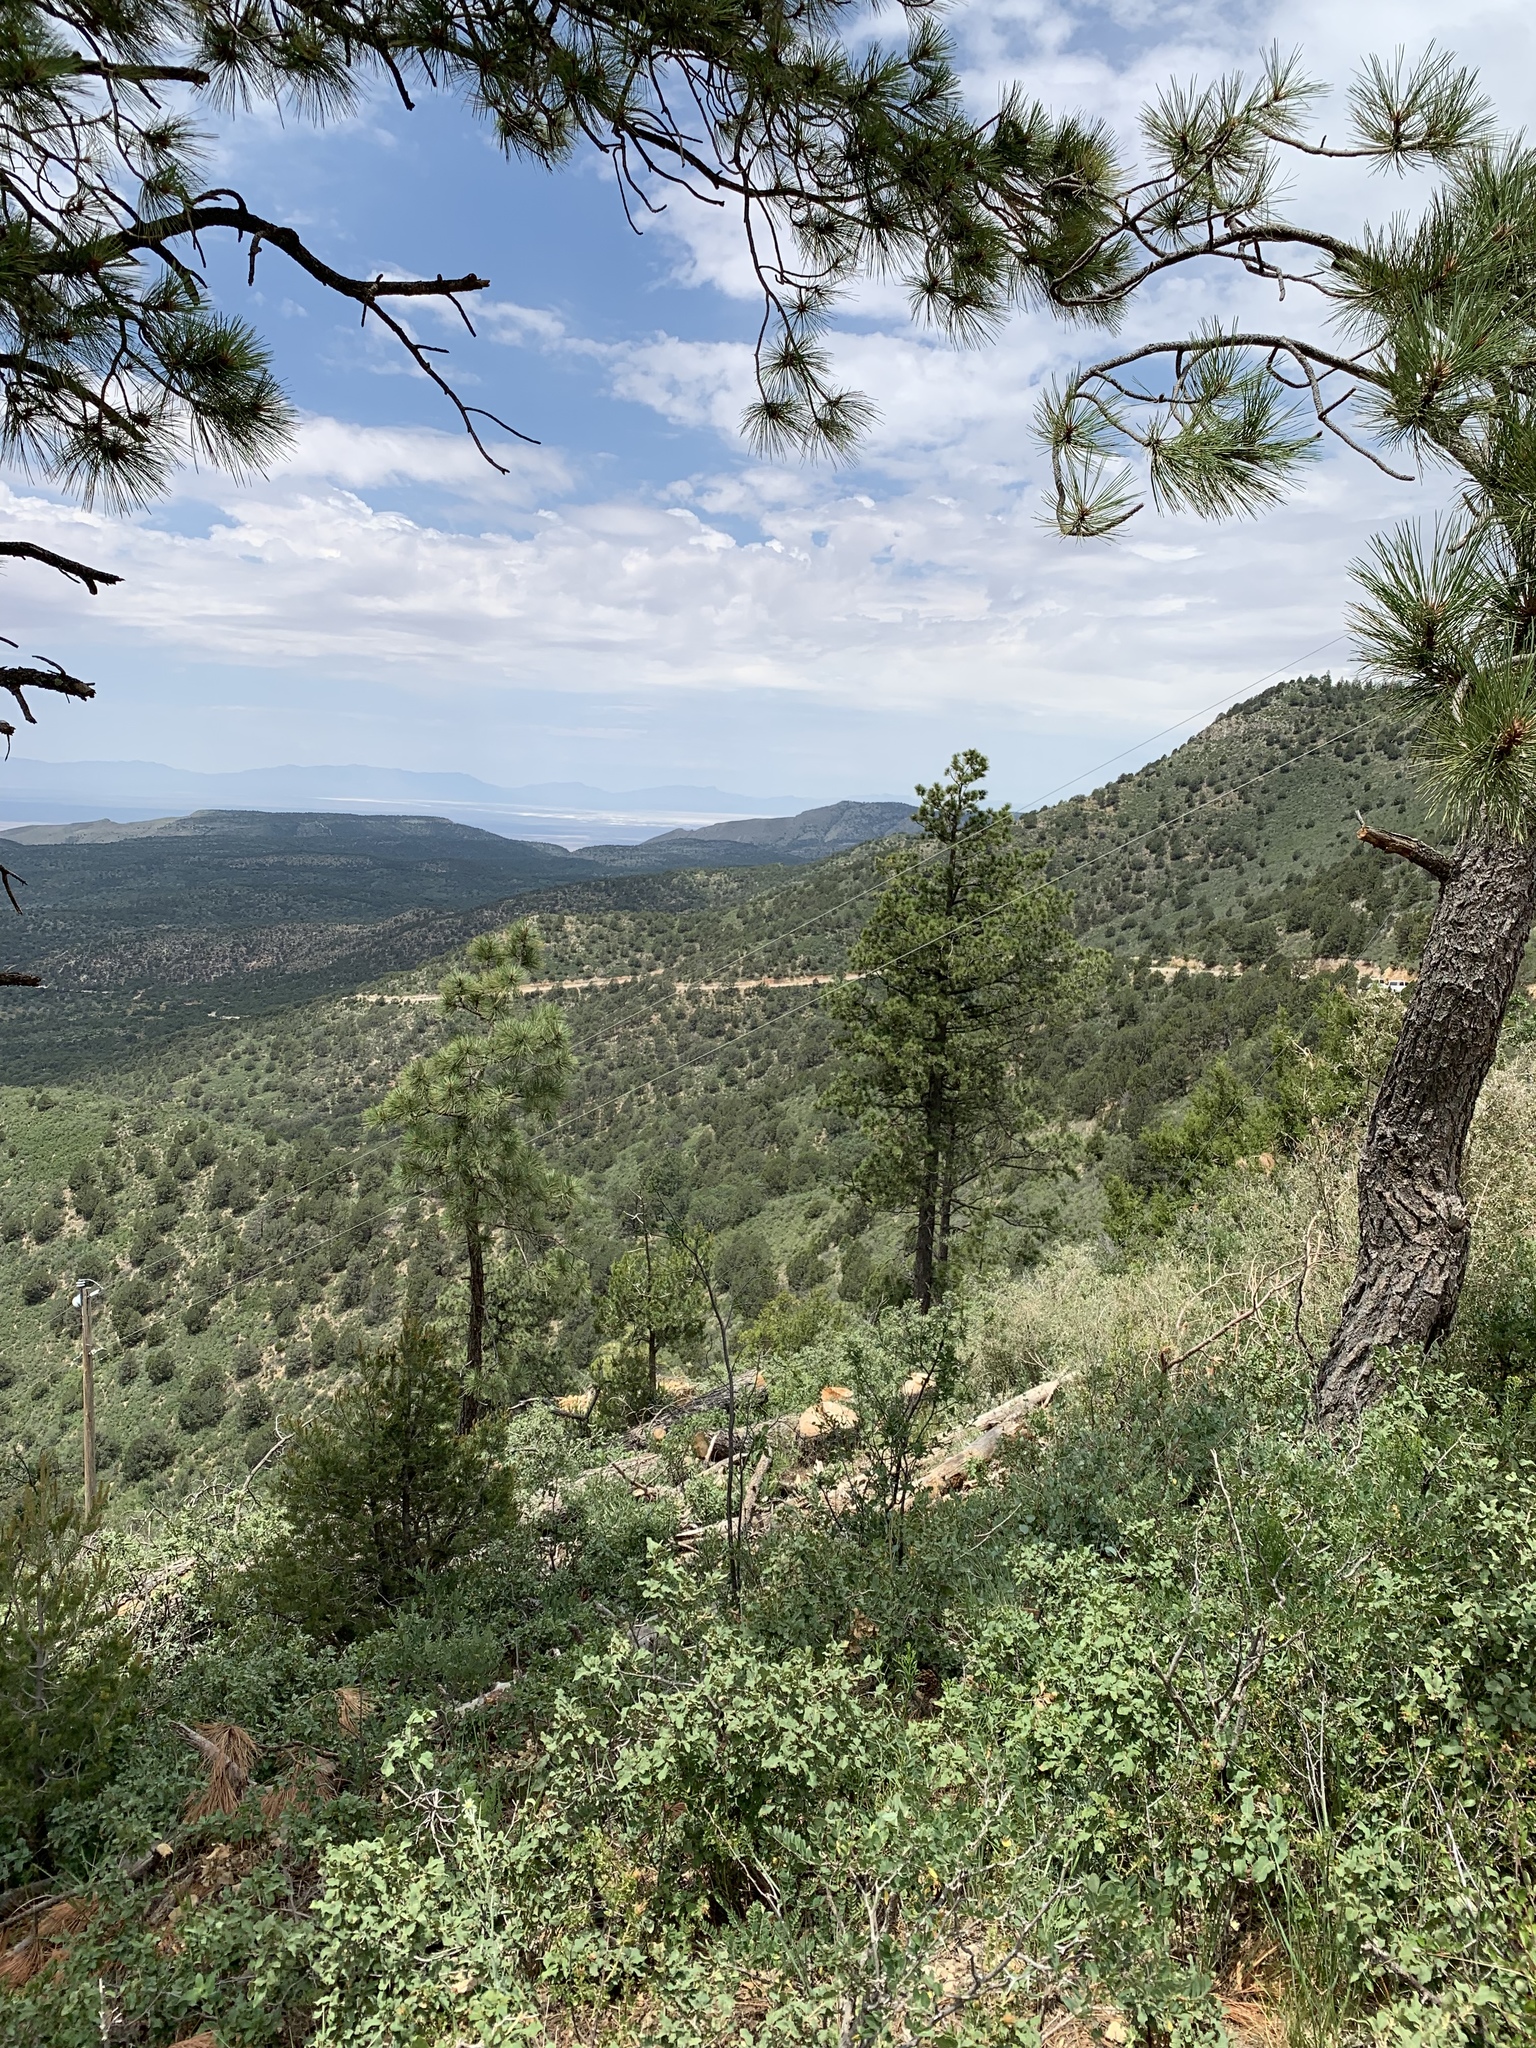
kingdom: Plantae
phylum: Tracheophyta
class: Magnoliopsida
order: Fagales
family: Fagaceae
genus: Quercus
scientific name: Quercus undulata
